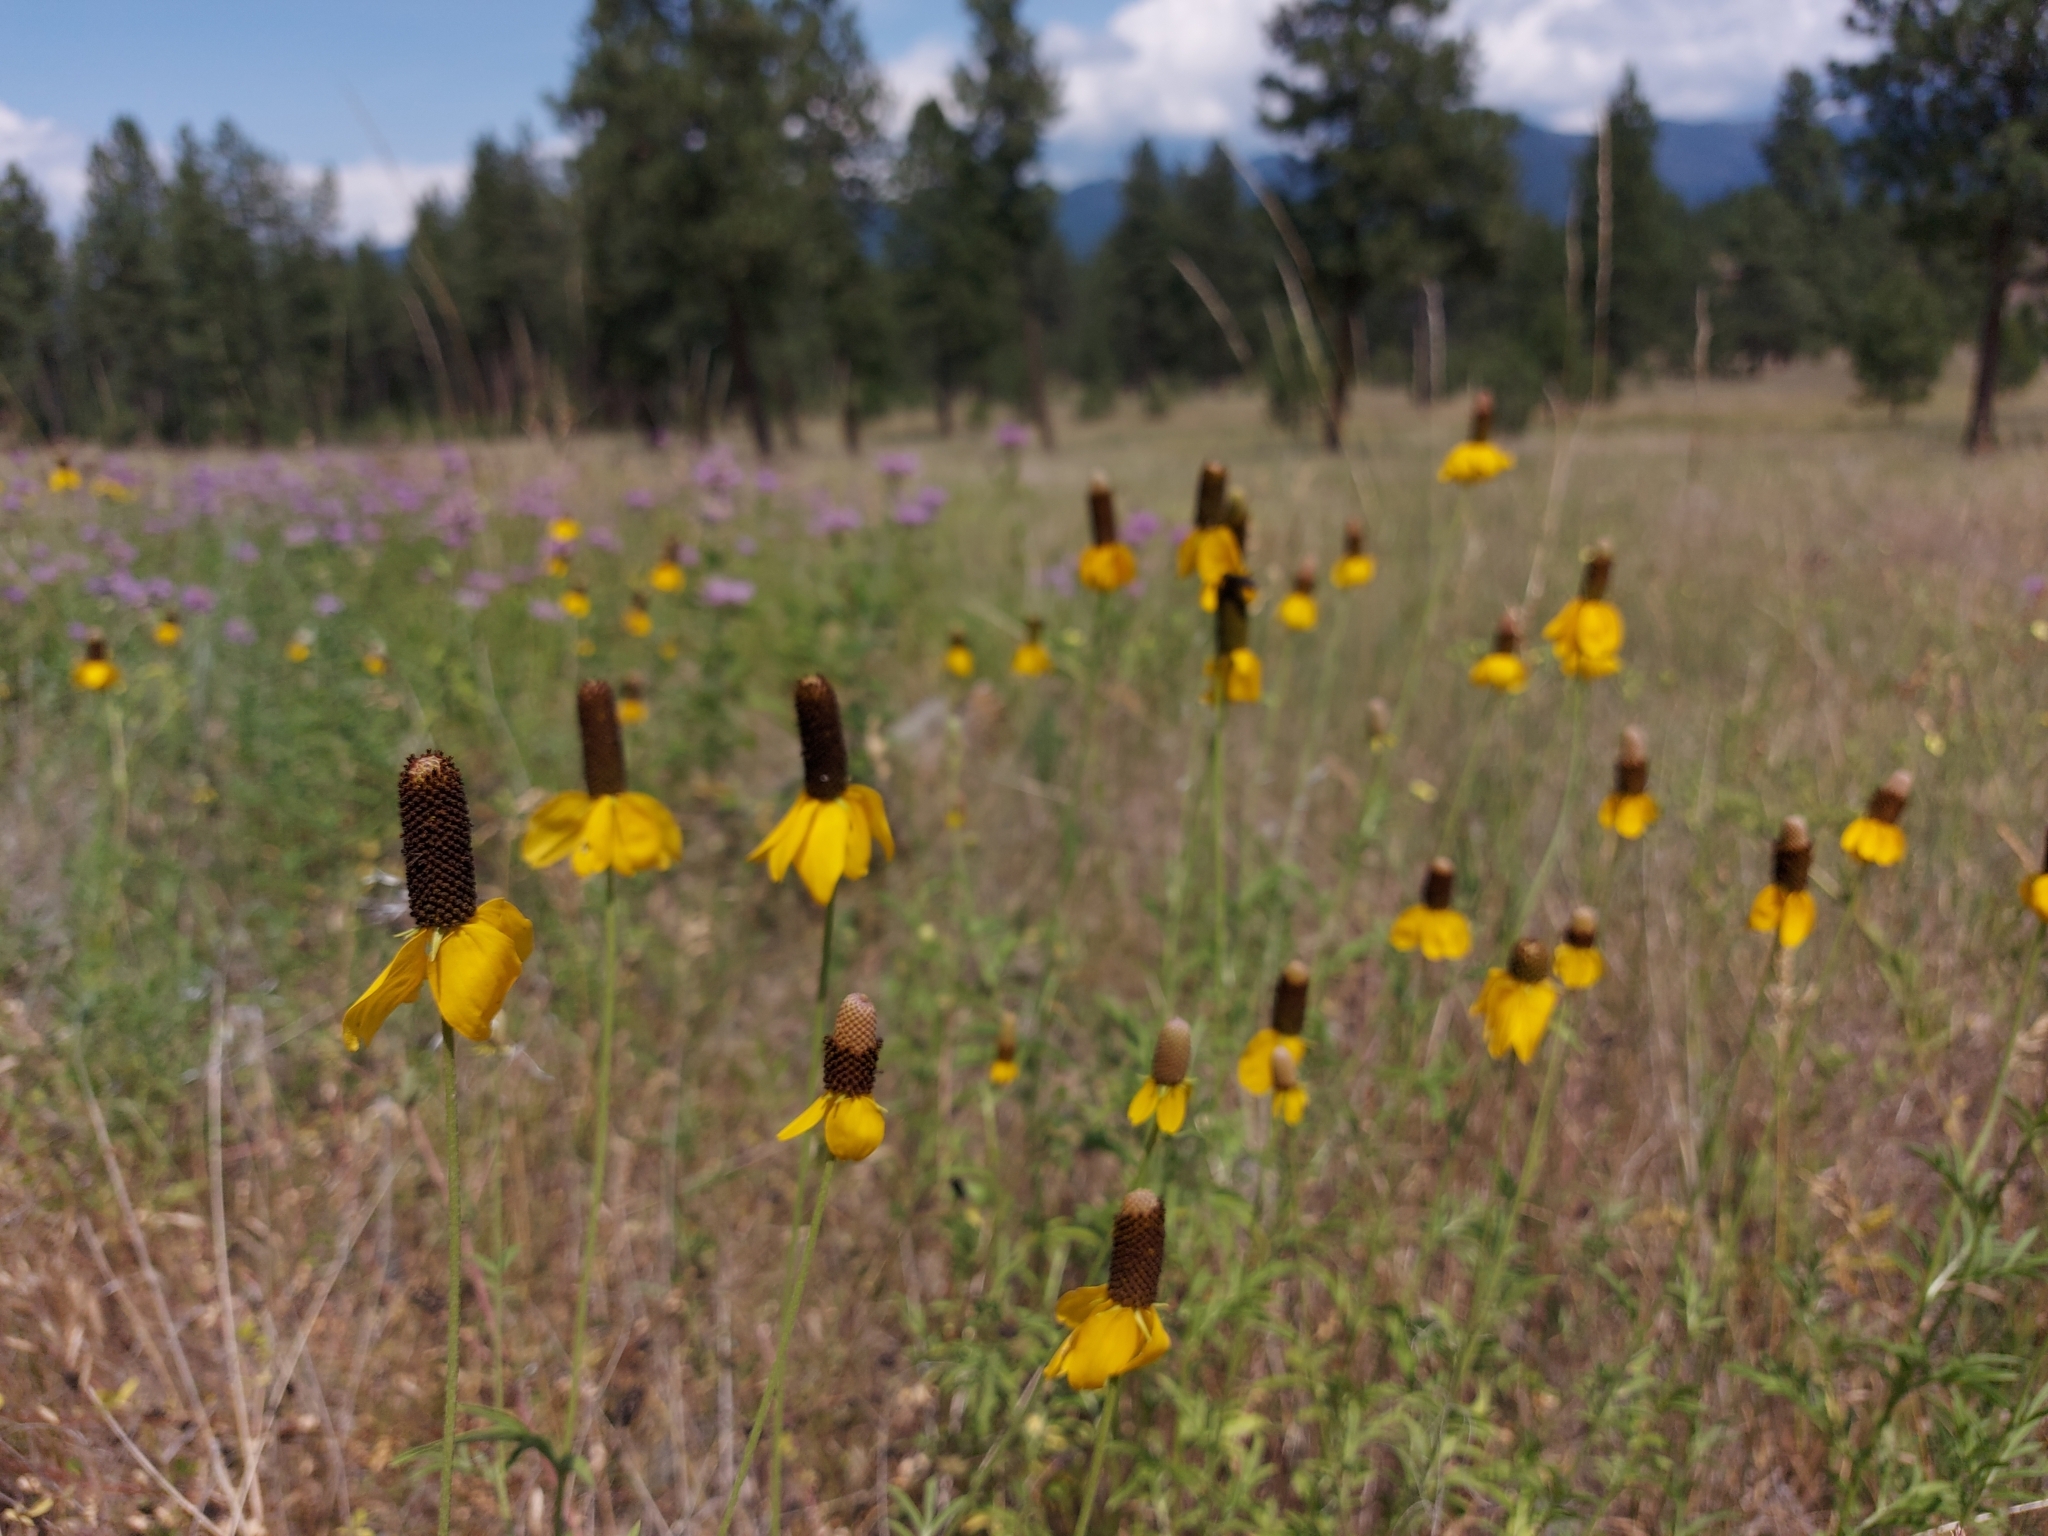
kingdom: Plantae
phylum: Tracheophyta
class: Magnoliopsida
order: Asterales
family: Asteraceae
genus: Ratibida
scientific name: Ratibida columnifera
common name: Prairie coneflower
